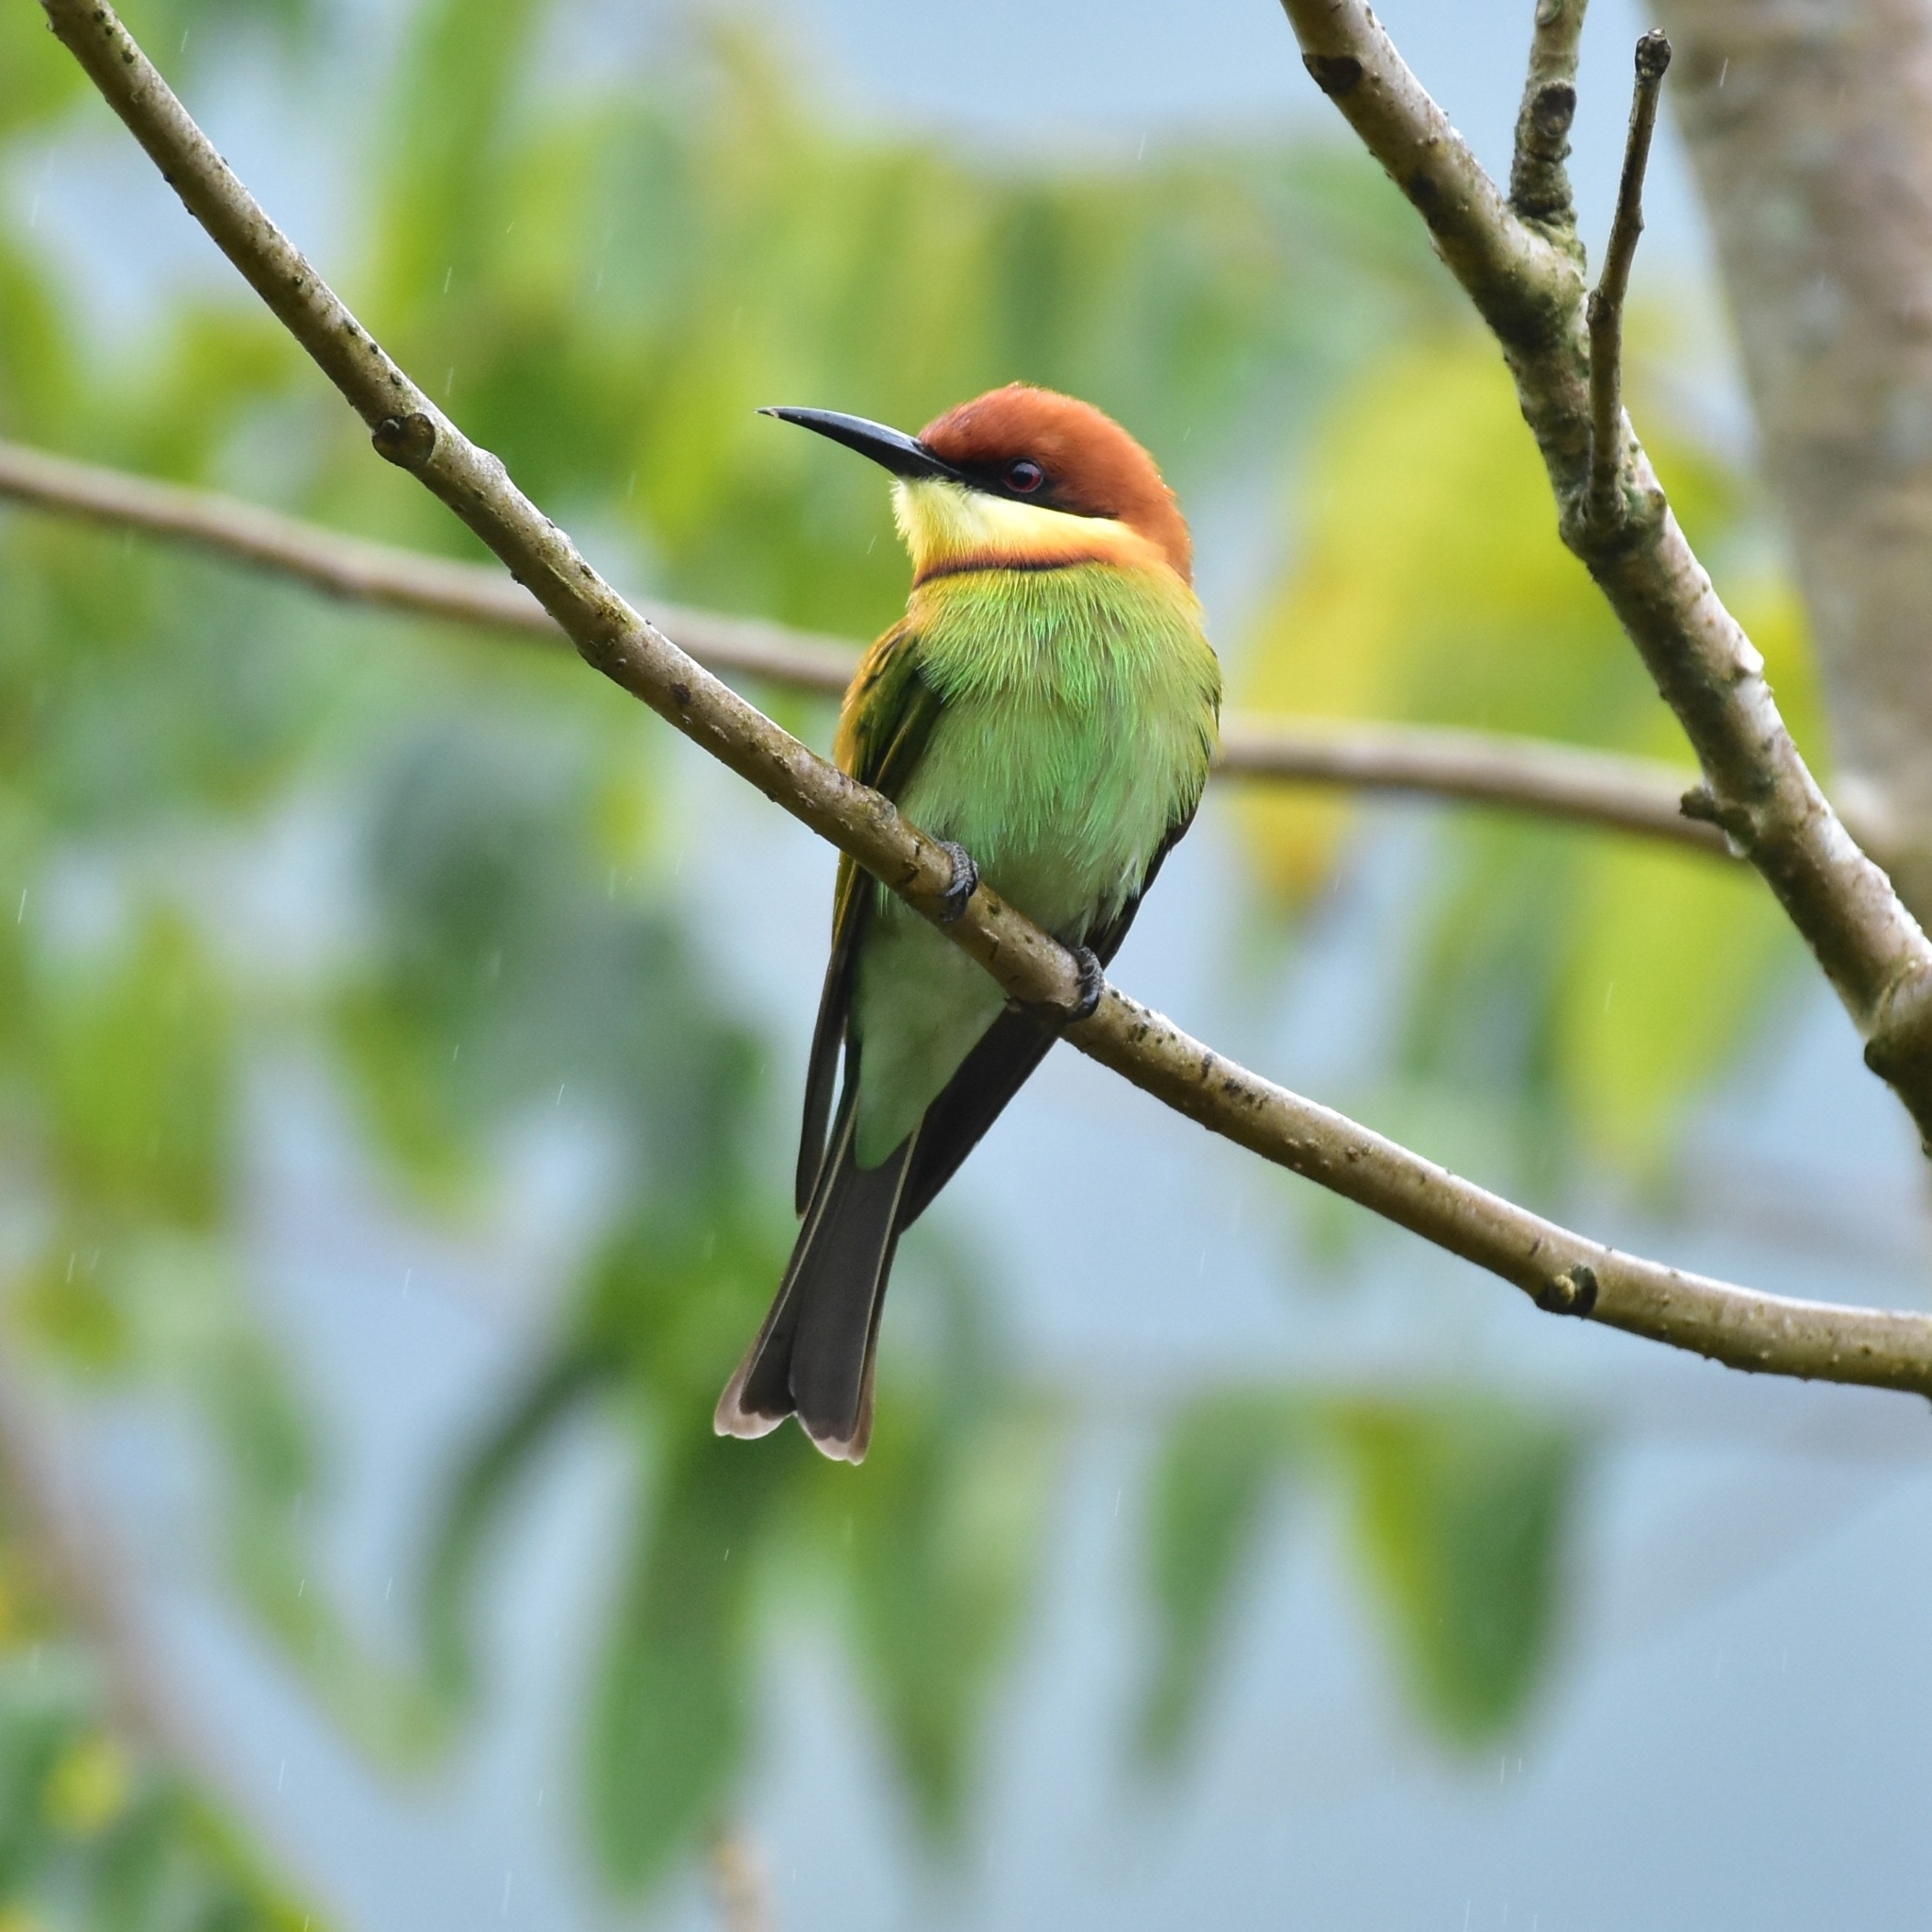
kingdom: Animalia
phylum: Chordata
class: Aves
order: Coraciiformes
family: Meropidae
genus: Merops
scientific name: Merops leschenaulti
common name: Chestnut-headed bee-eater
